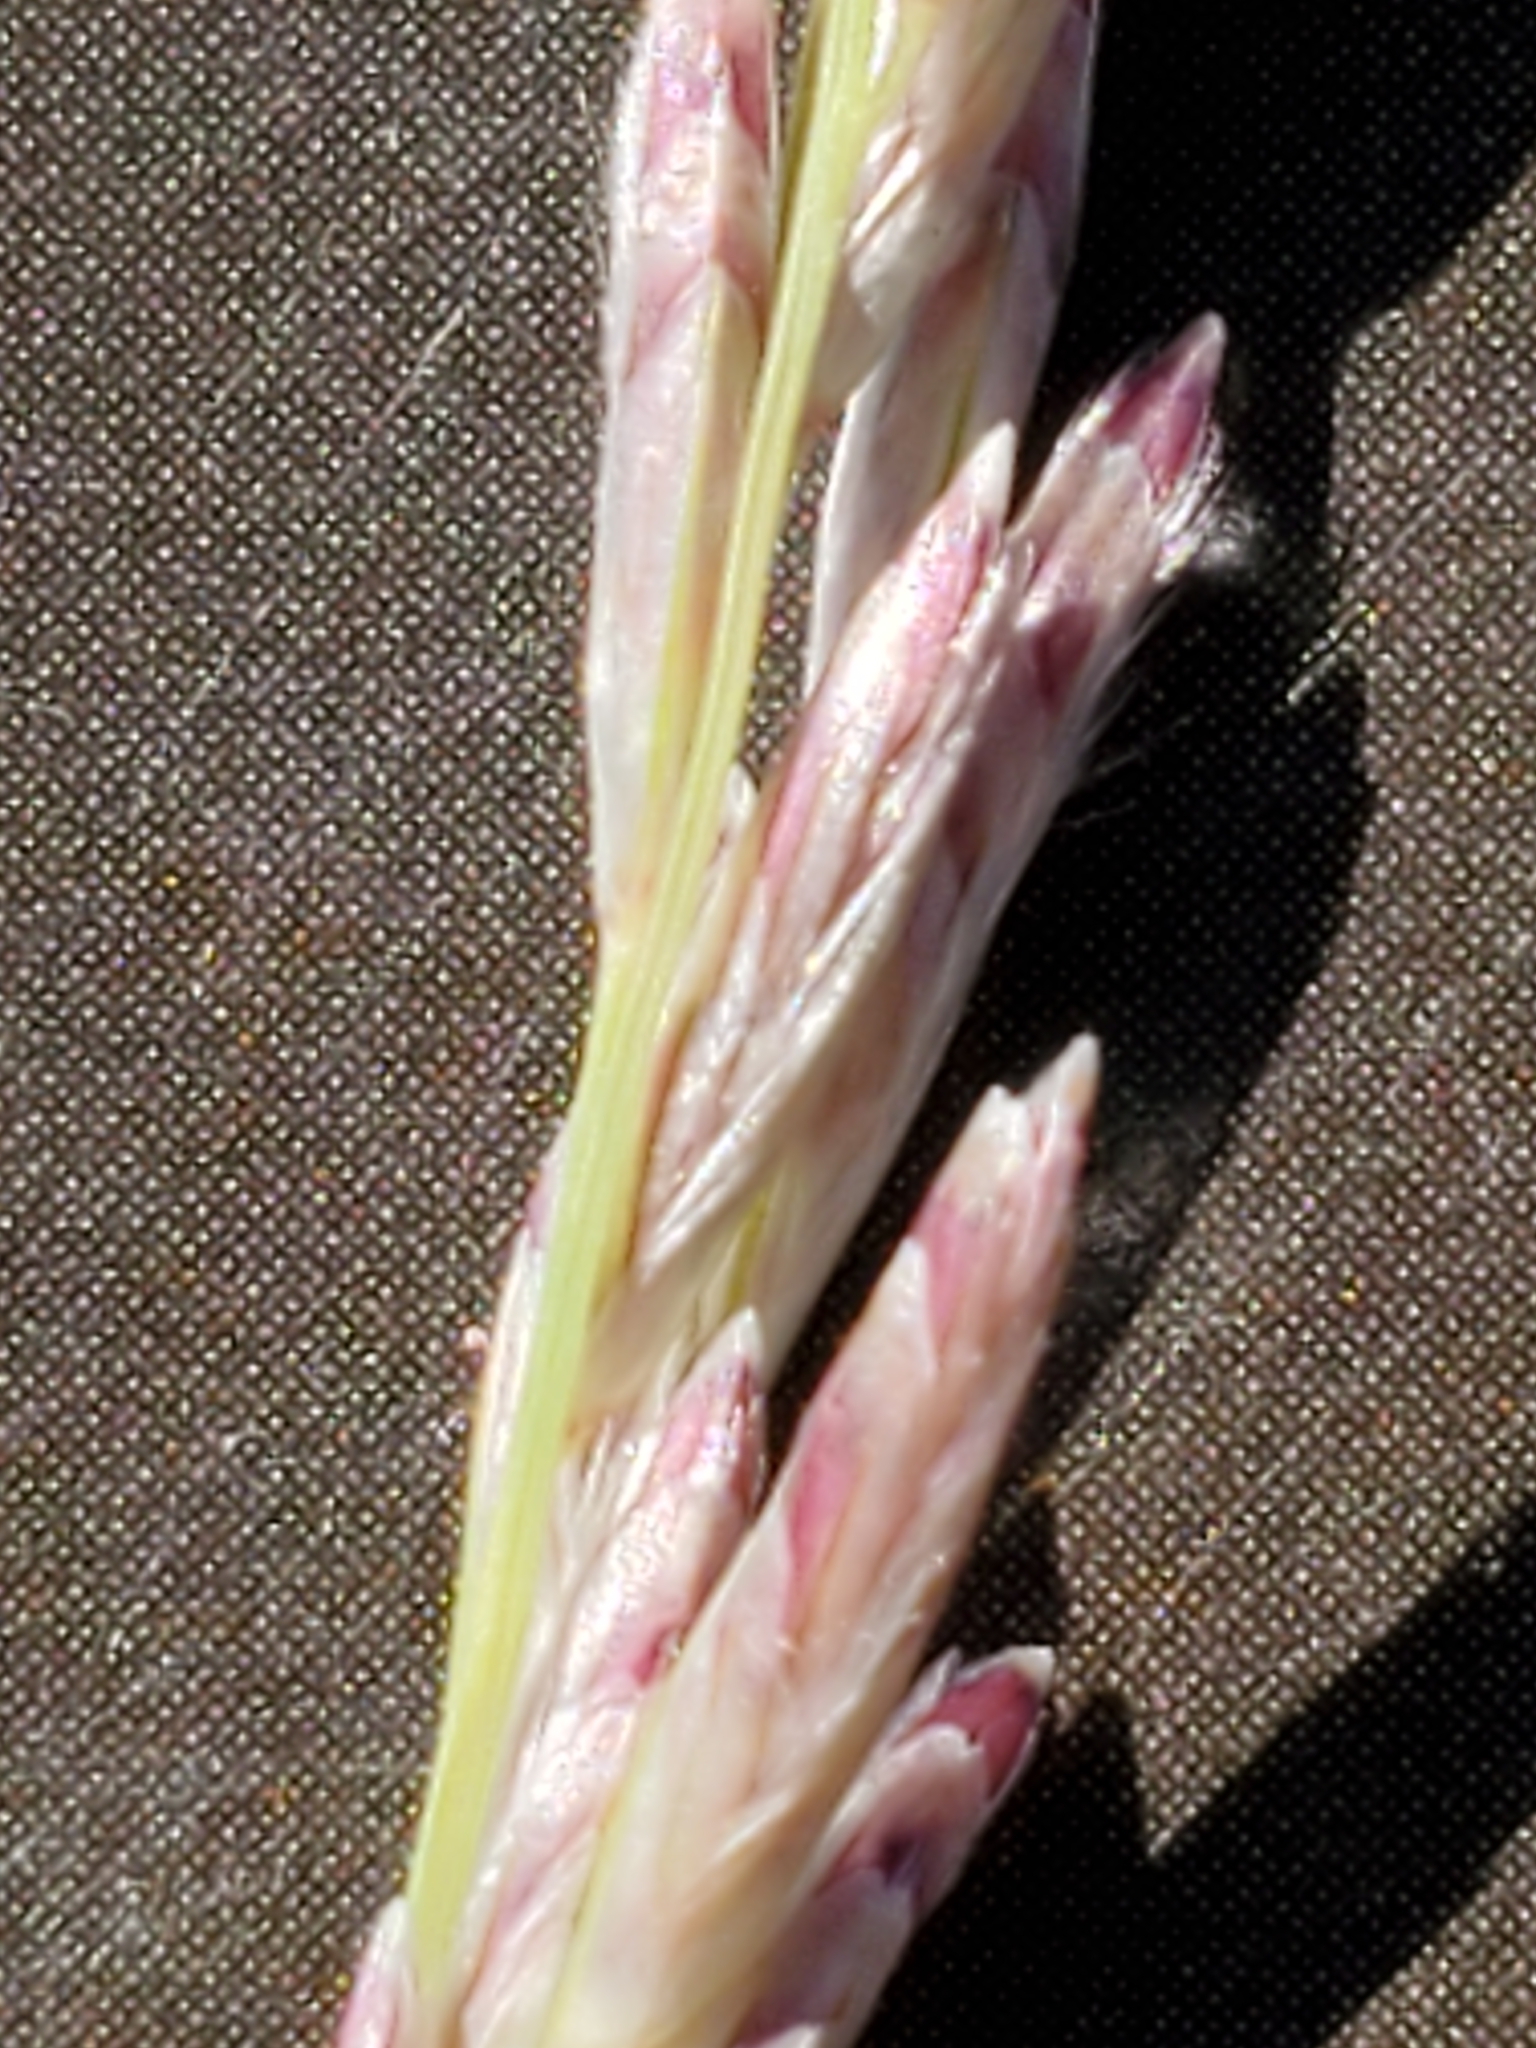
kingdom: Plantae
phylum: Tracheophyta
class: Liliopsida
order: Poales
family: Poaceae
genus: Tridentopsis
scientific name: Tridentopsis mutica
